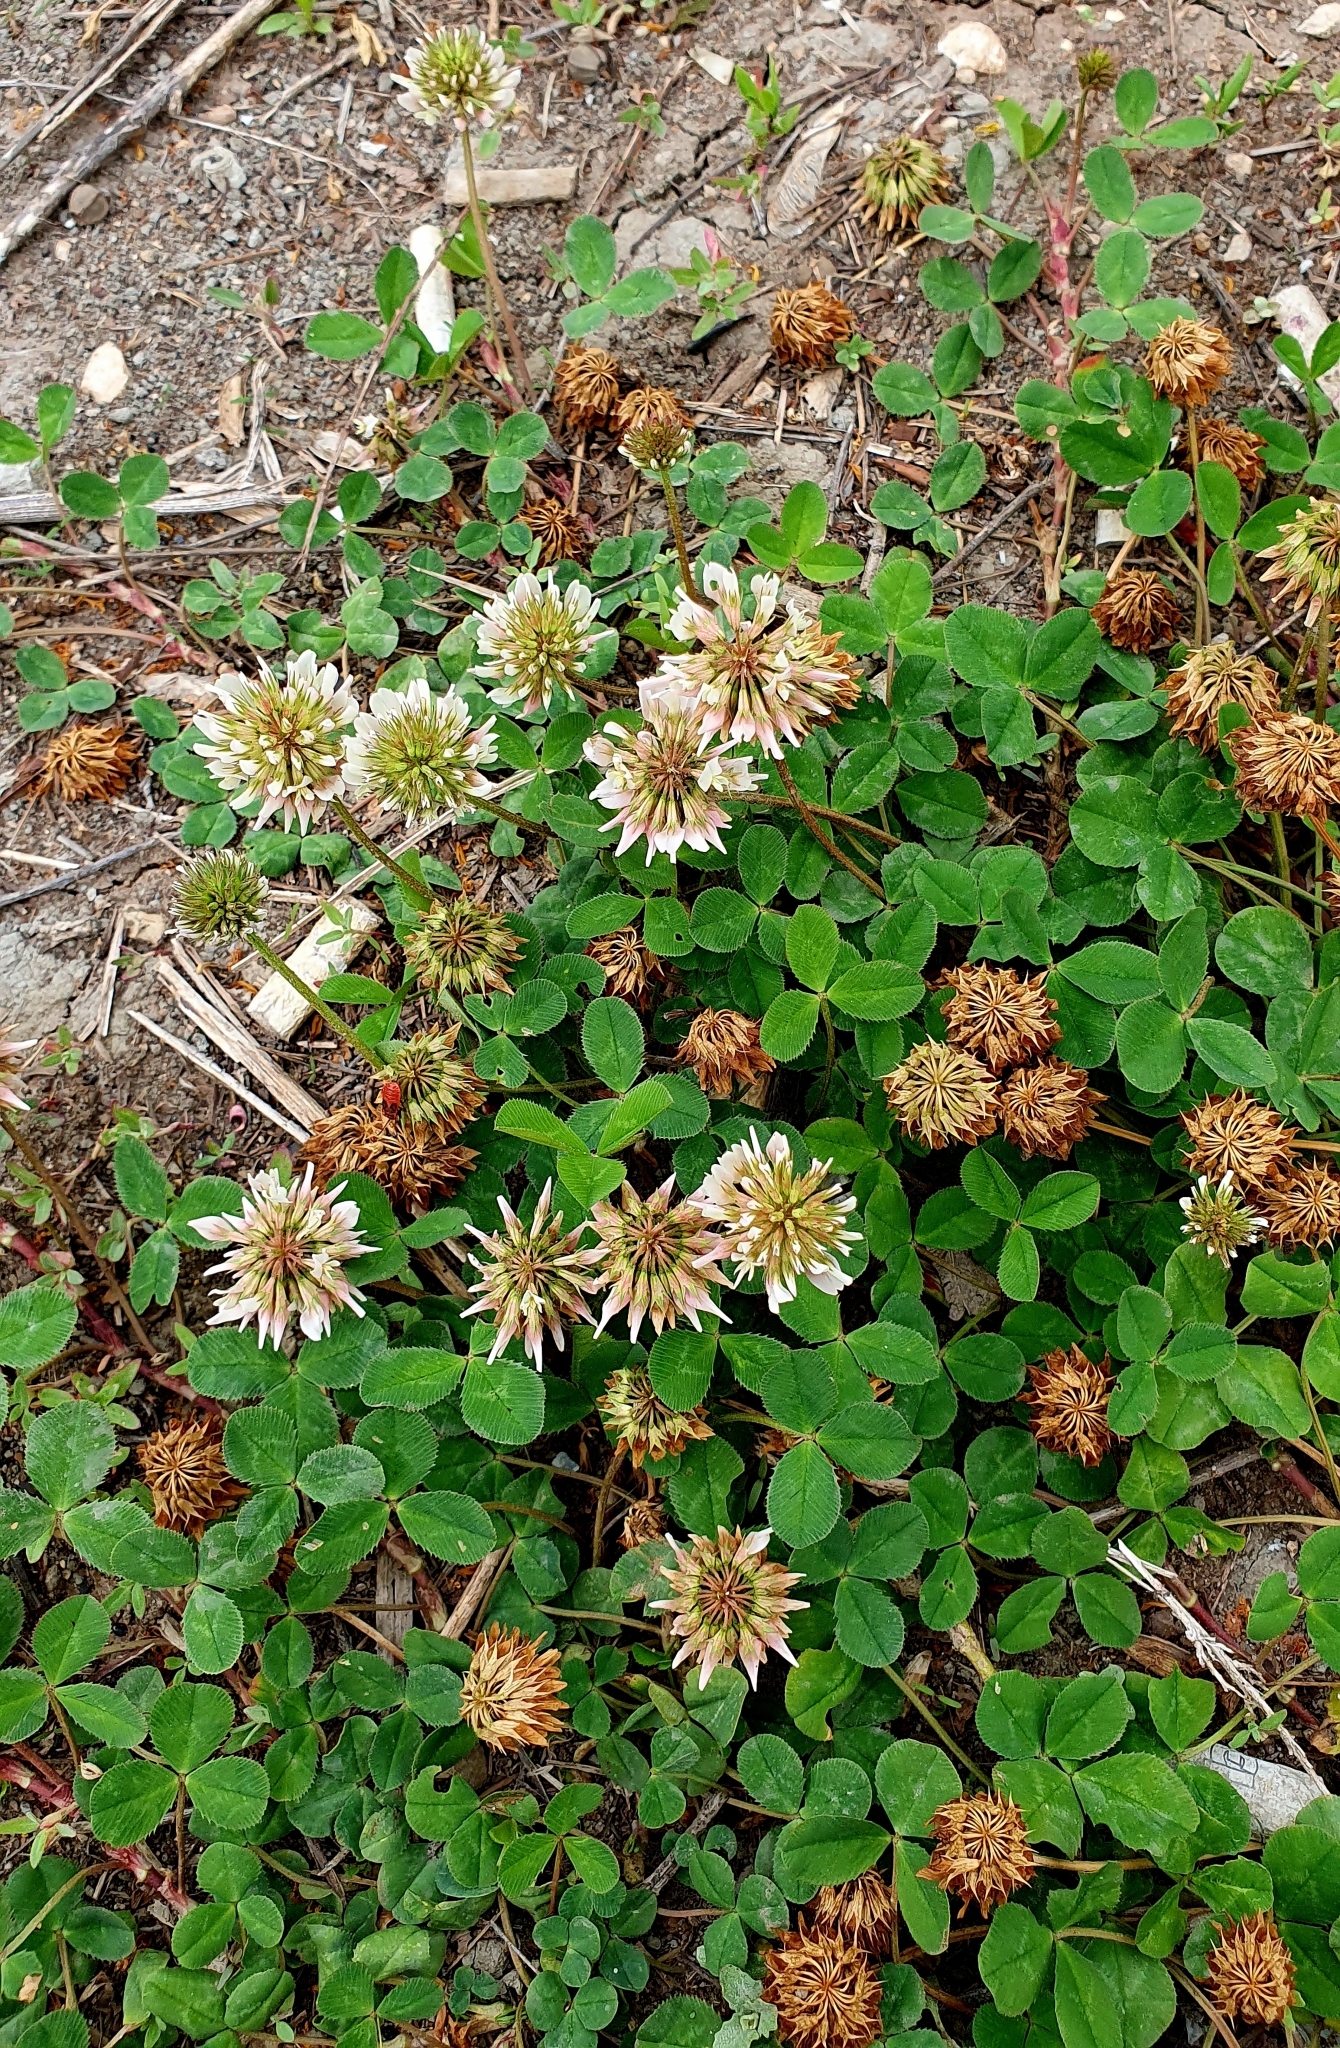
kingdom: Plantae
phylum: Tracheophyta
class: Magnoliopsida
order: Fabales
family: Fabaceae
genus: Trifolium
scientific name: Trifolium repens
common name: White clover
